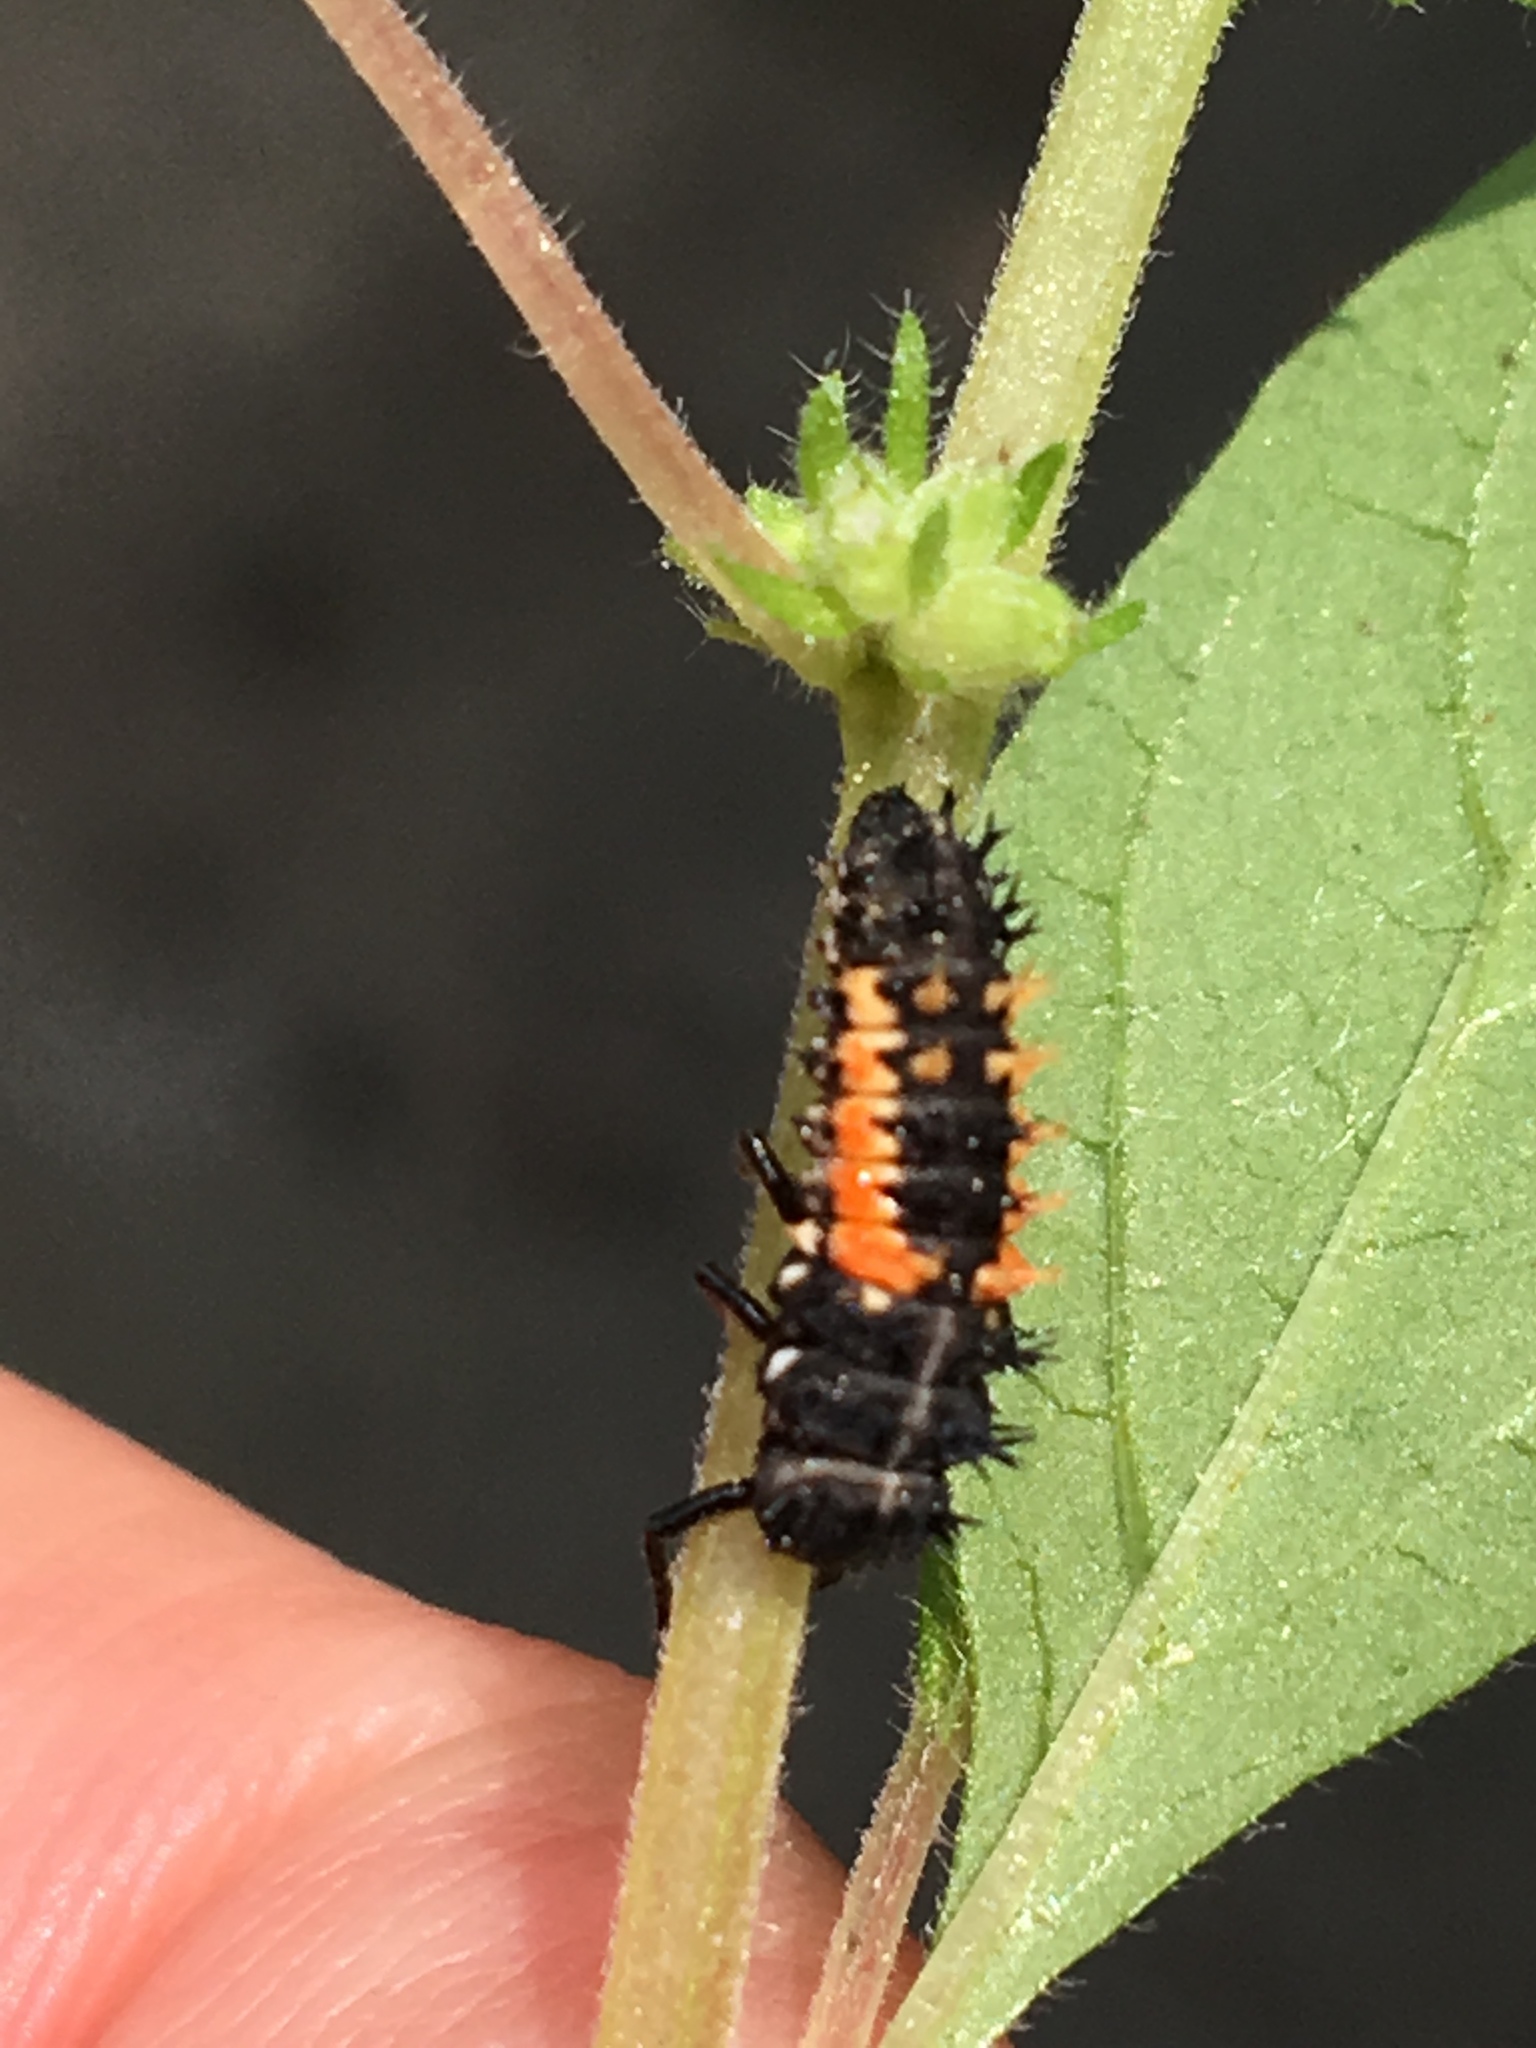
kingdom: Animalia
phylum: Arthropoda
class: Insecta
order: Coleoptera
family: Coccinellidae
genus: Harmonia
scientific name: Harmonia axyridis
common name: Harlequin ladybird
